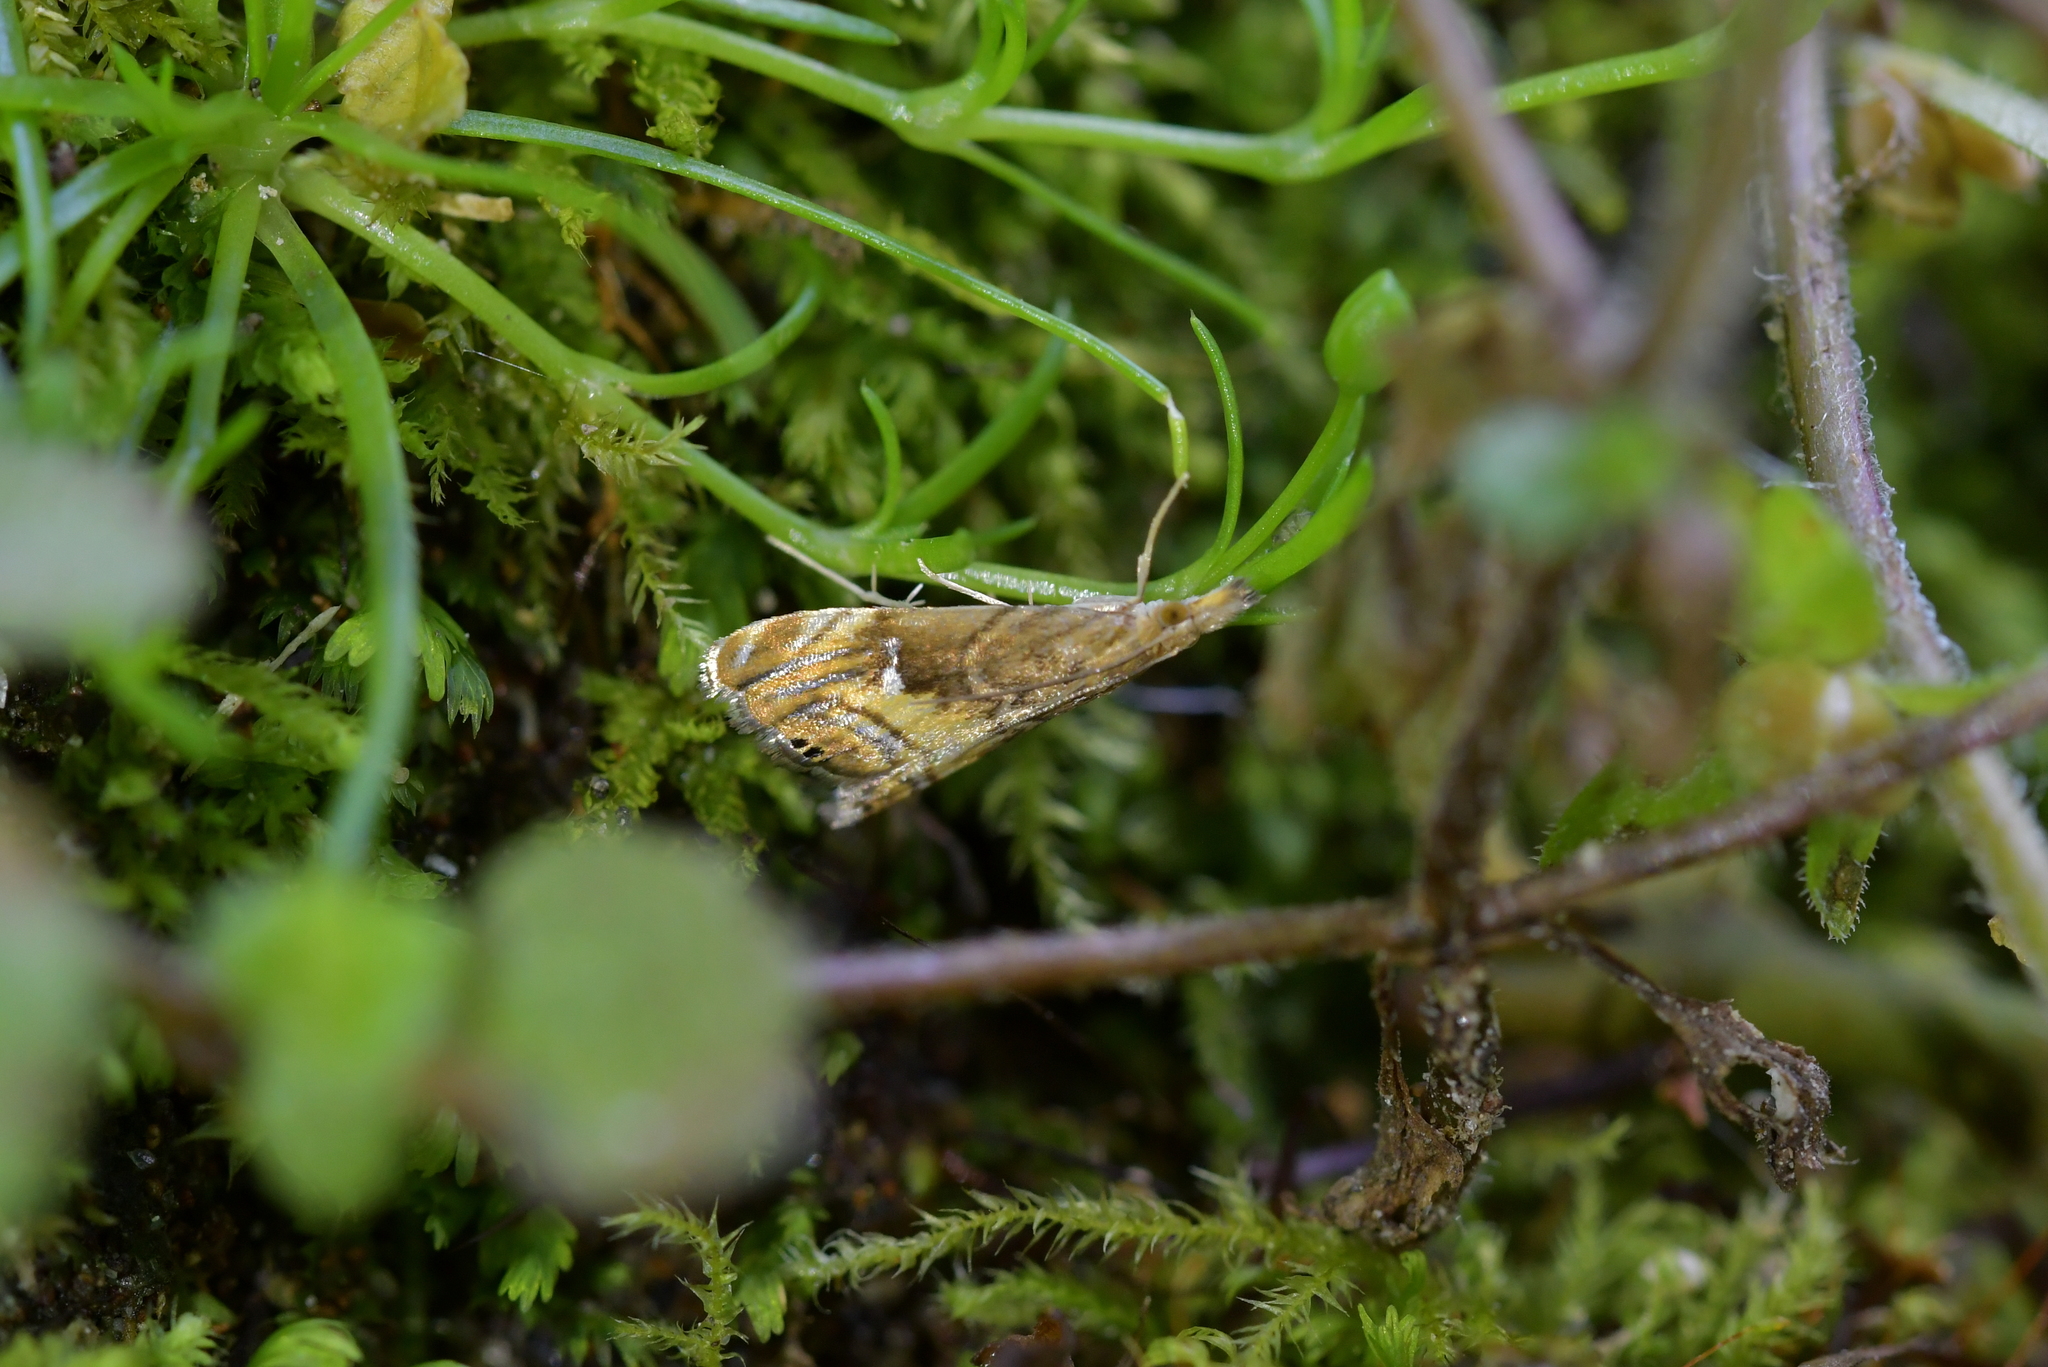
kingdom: Animalia
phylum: Arthropoda
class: Insecta
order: Lepidoptera
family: Crambidae
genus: Glaucocharis
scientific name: Glaucocharis chrysochyta
